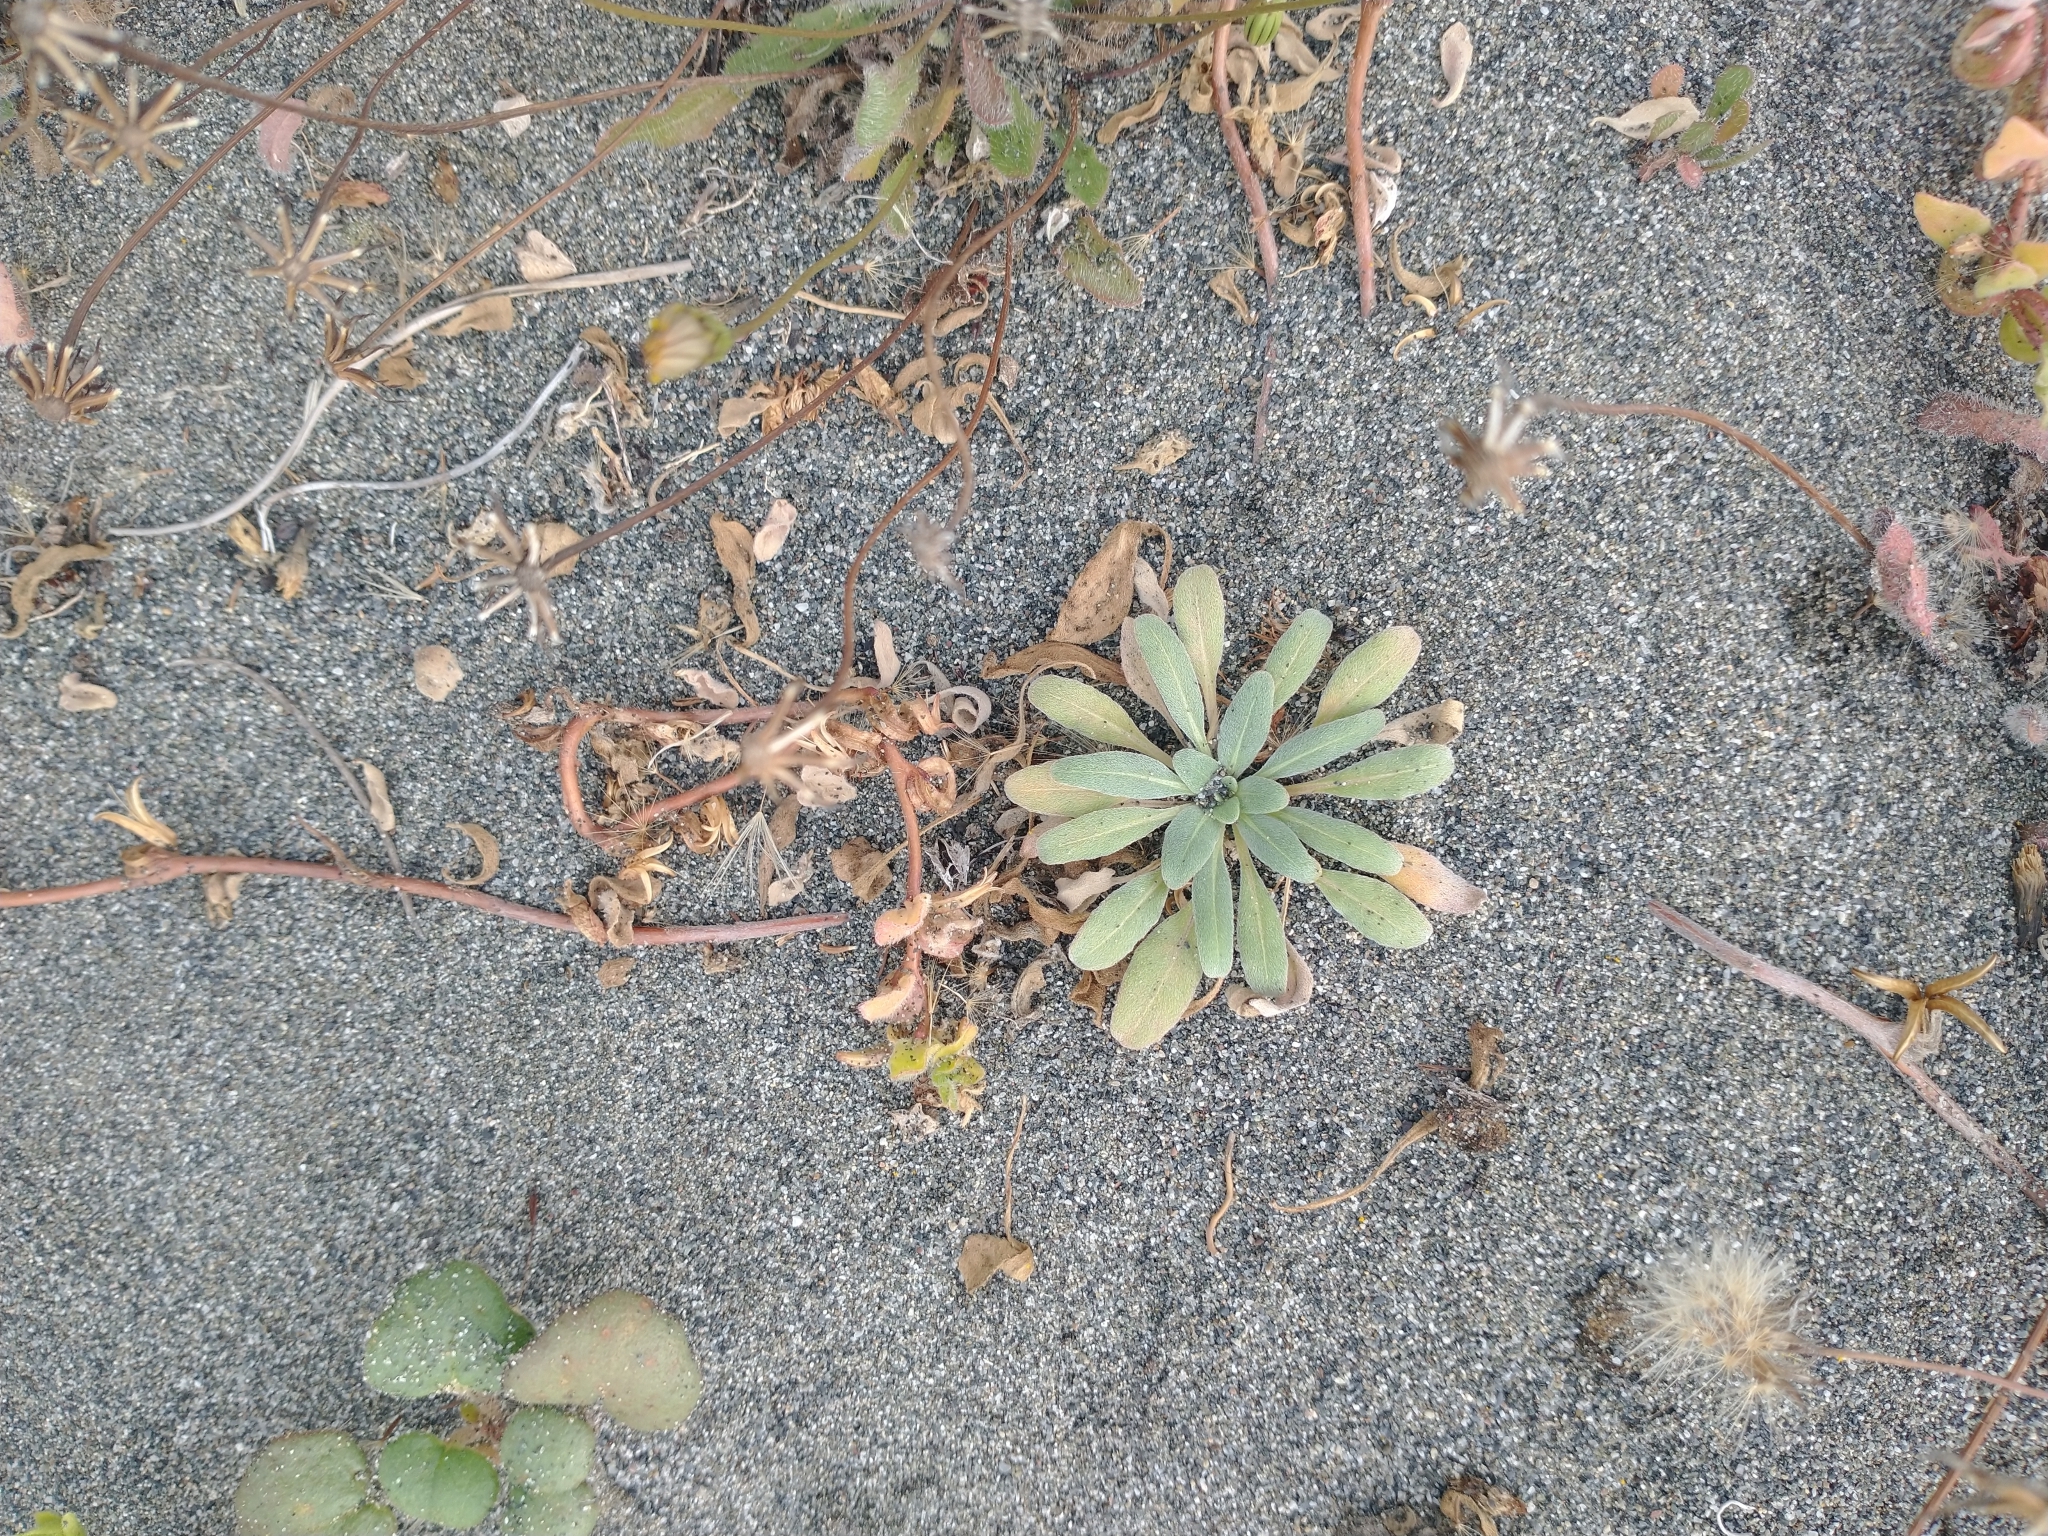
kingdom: Plantae
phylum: Tracheophyta
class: Magnoliopsida
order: Myrtales
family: Onagraceae
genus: Camissoniopsis
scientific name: Camissoniopsis cheiranthifolia
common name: Beach suncup
